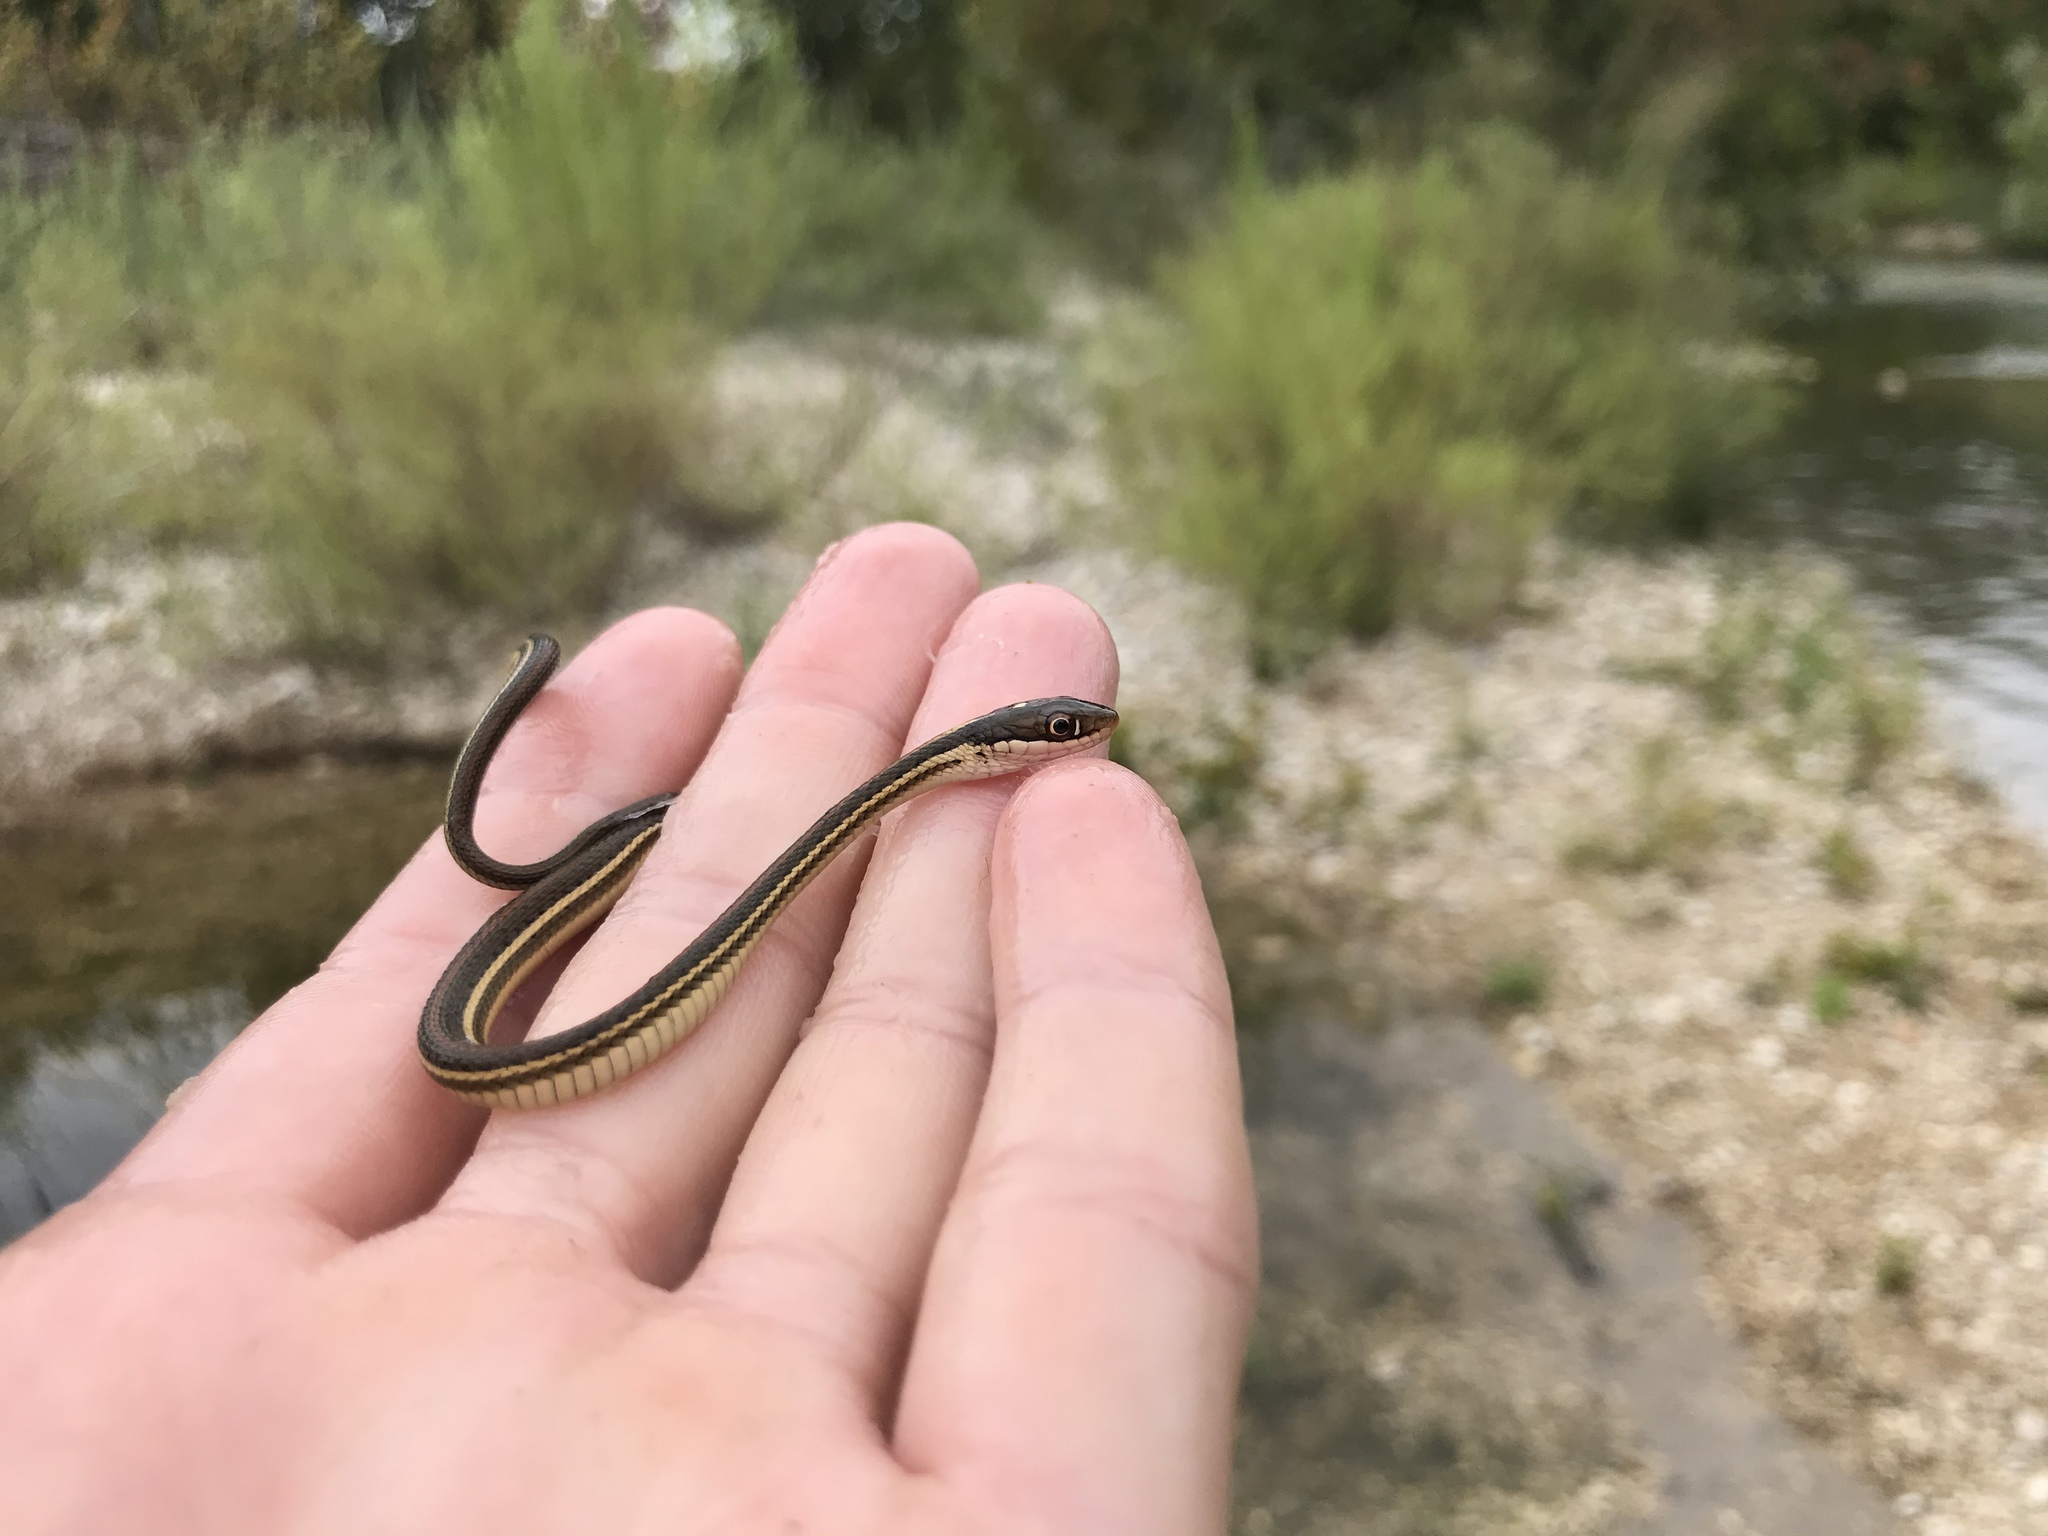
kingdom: Animalia
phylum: Chordata
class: Squamata
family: Colubridae
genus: Thamnophis
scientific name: Thamnophis proximus
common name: Western ribbon snake
